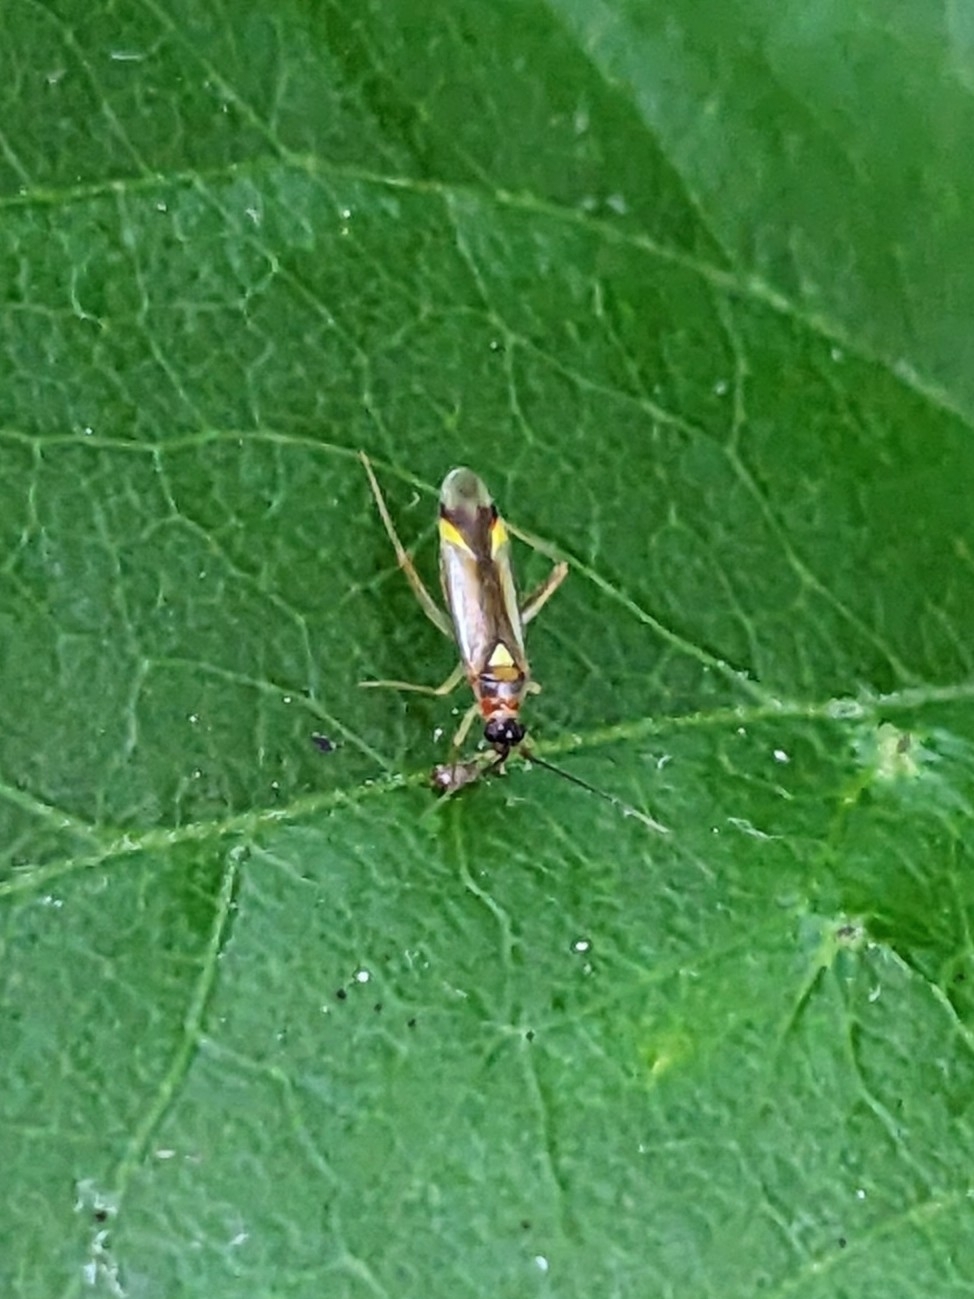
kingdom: Animalia
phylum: Arthropoda
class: Insecta
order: Hemiptera
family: Miridae
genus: Campyloneura
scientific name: Campyloneura virgula
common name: Predatory bug
